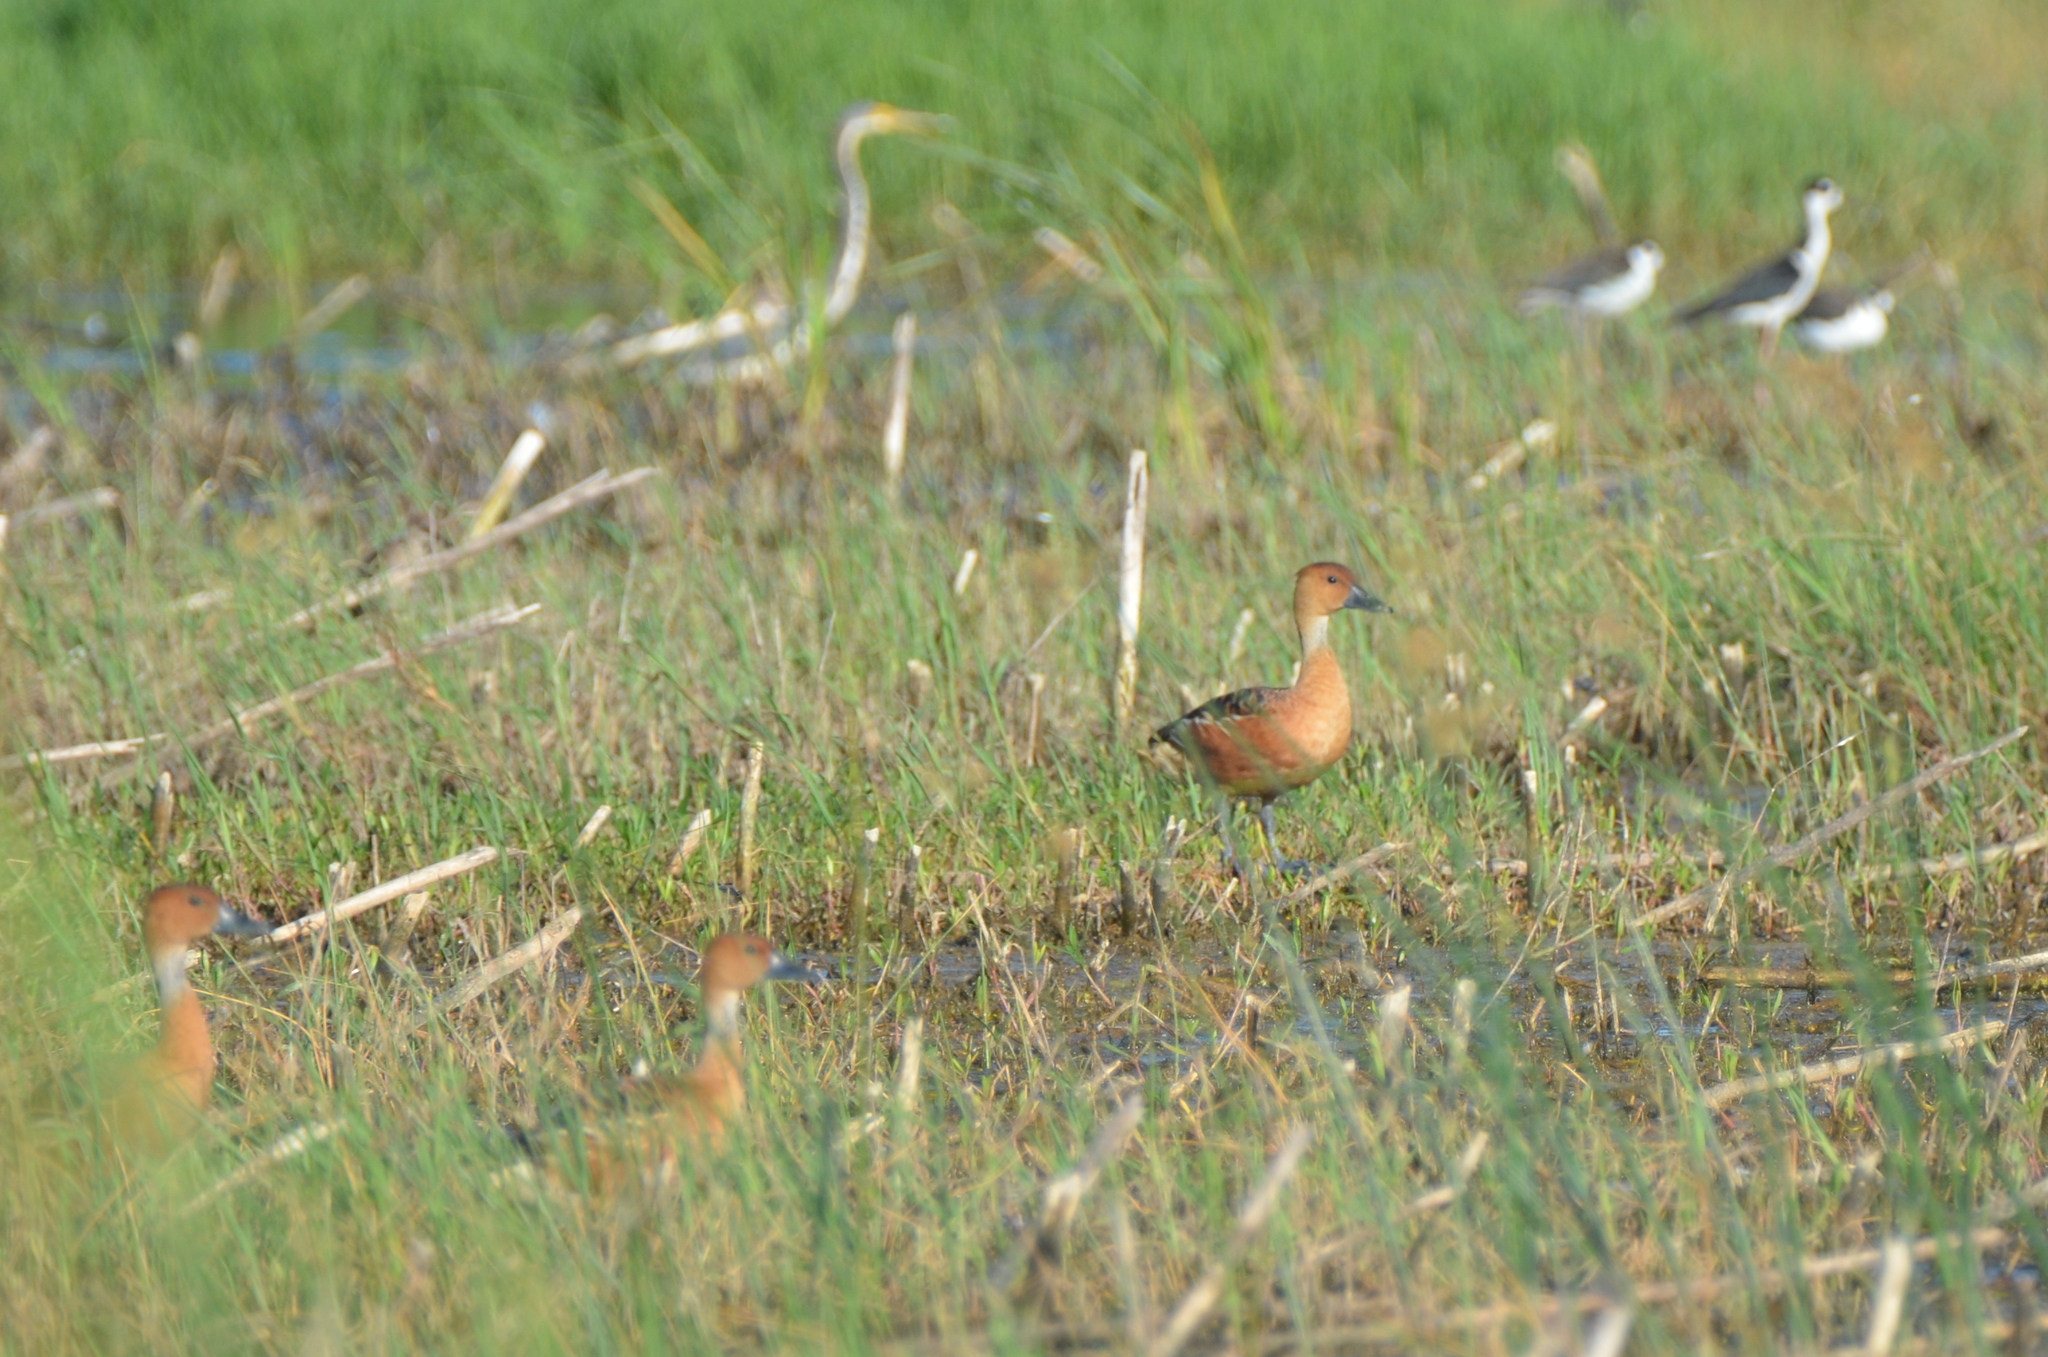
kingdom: Animalia
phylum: Chordata
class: Aves
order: Anseriformes
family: Anatidae
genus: Dendrocygna
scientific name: Dendrocygna bicolor
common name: Fulvous whistling duck
